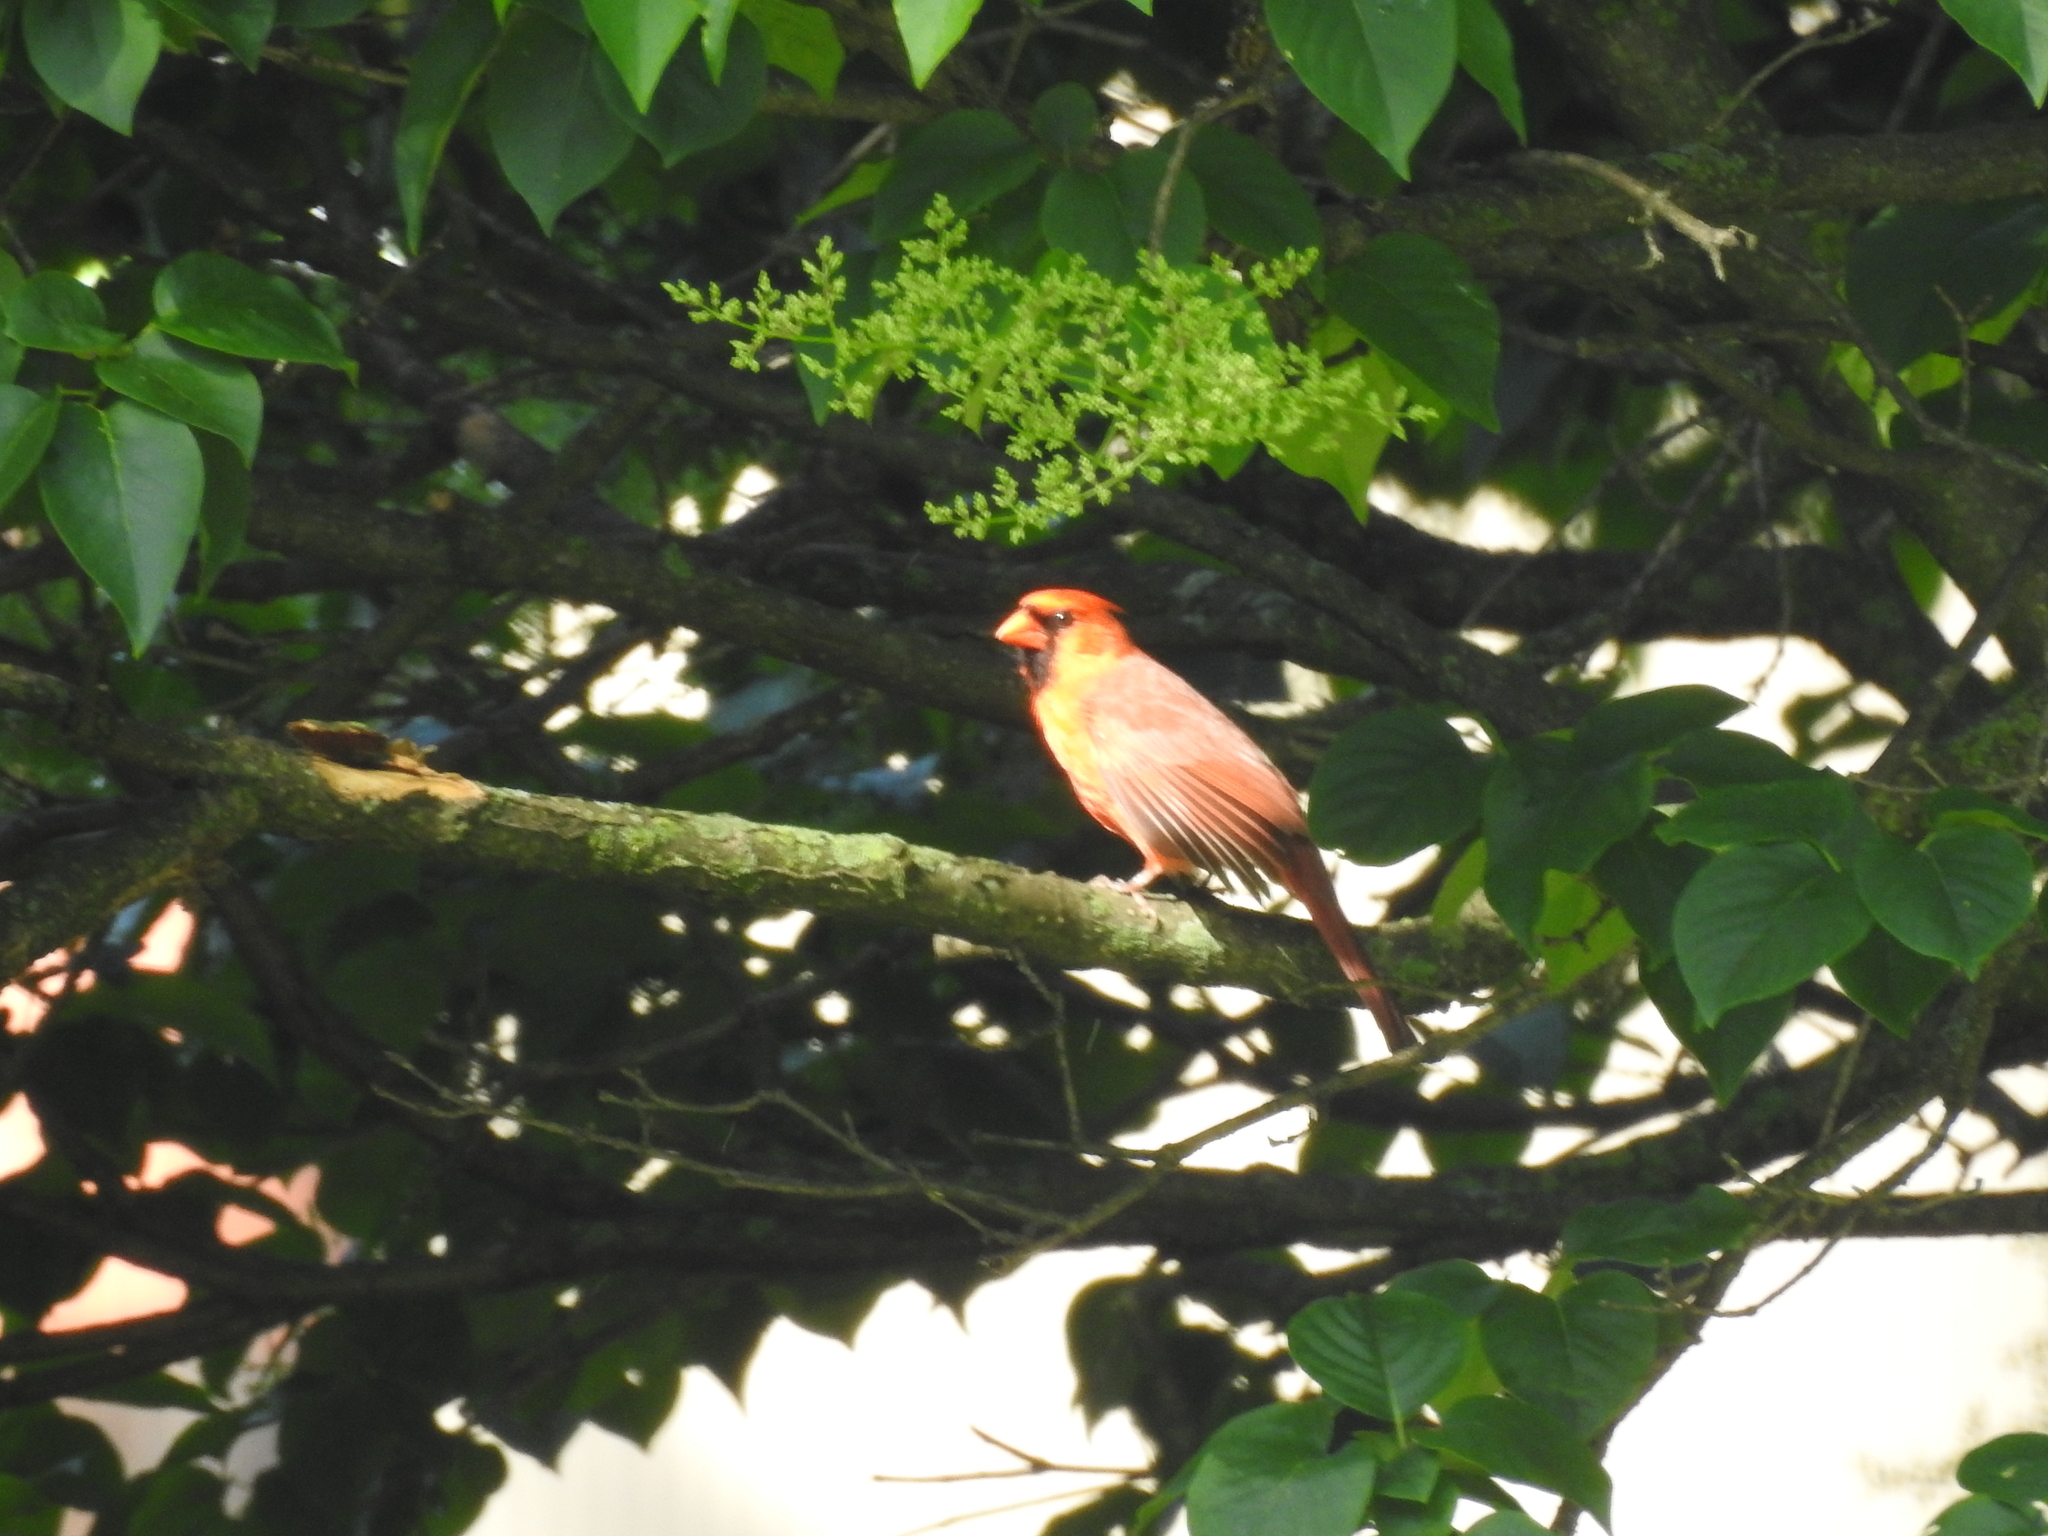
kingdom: Animalia
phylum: Chordata
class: Aves
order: Passeriformes
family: Cardinalidae
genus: Cardinalis
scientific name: Cardinalis cardinalis
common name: Northern cardinal
